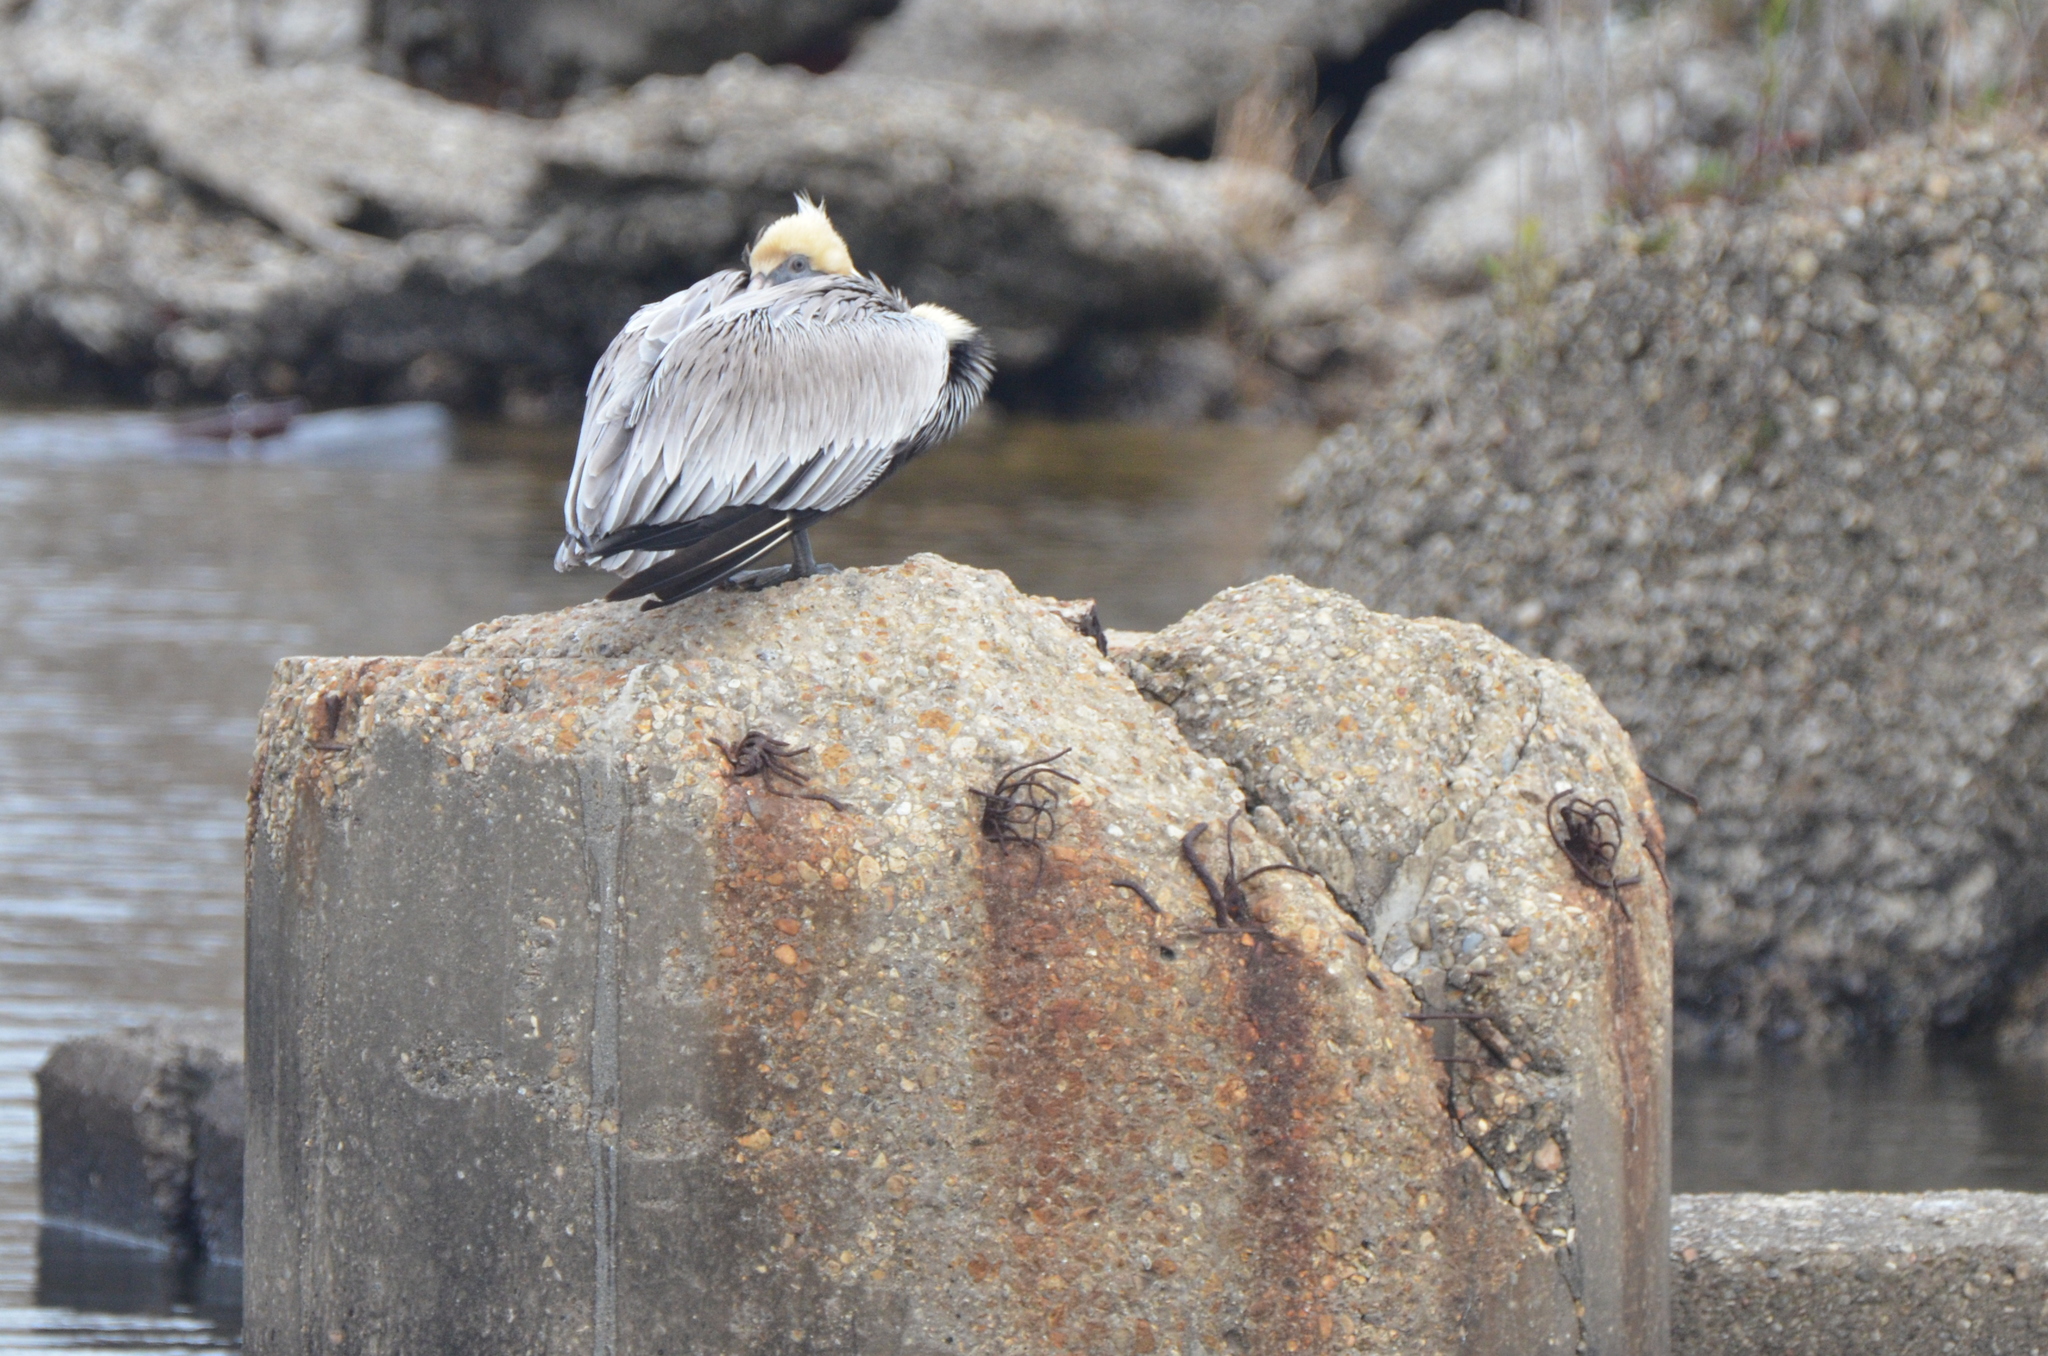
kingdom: Animalia
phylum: Chordata
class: Aves
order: Pelecaniformes
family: Pelecanidae
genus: Pelecanus
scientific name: Pelecanus occidentalis
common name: Brown pelican
